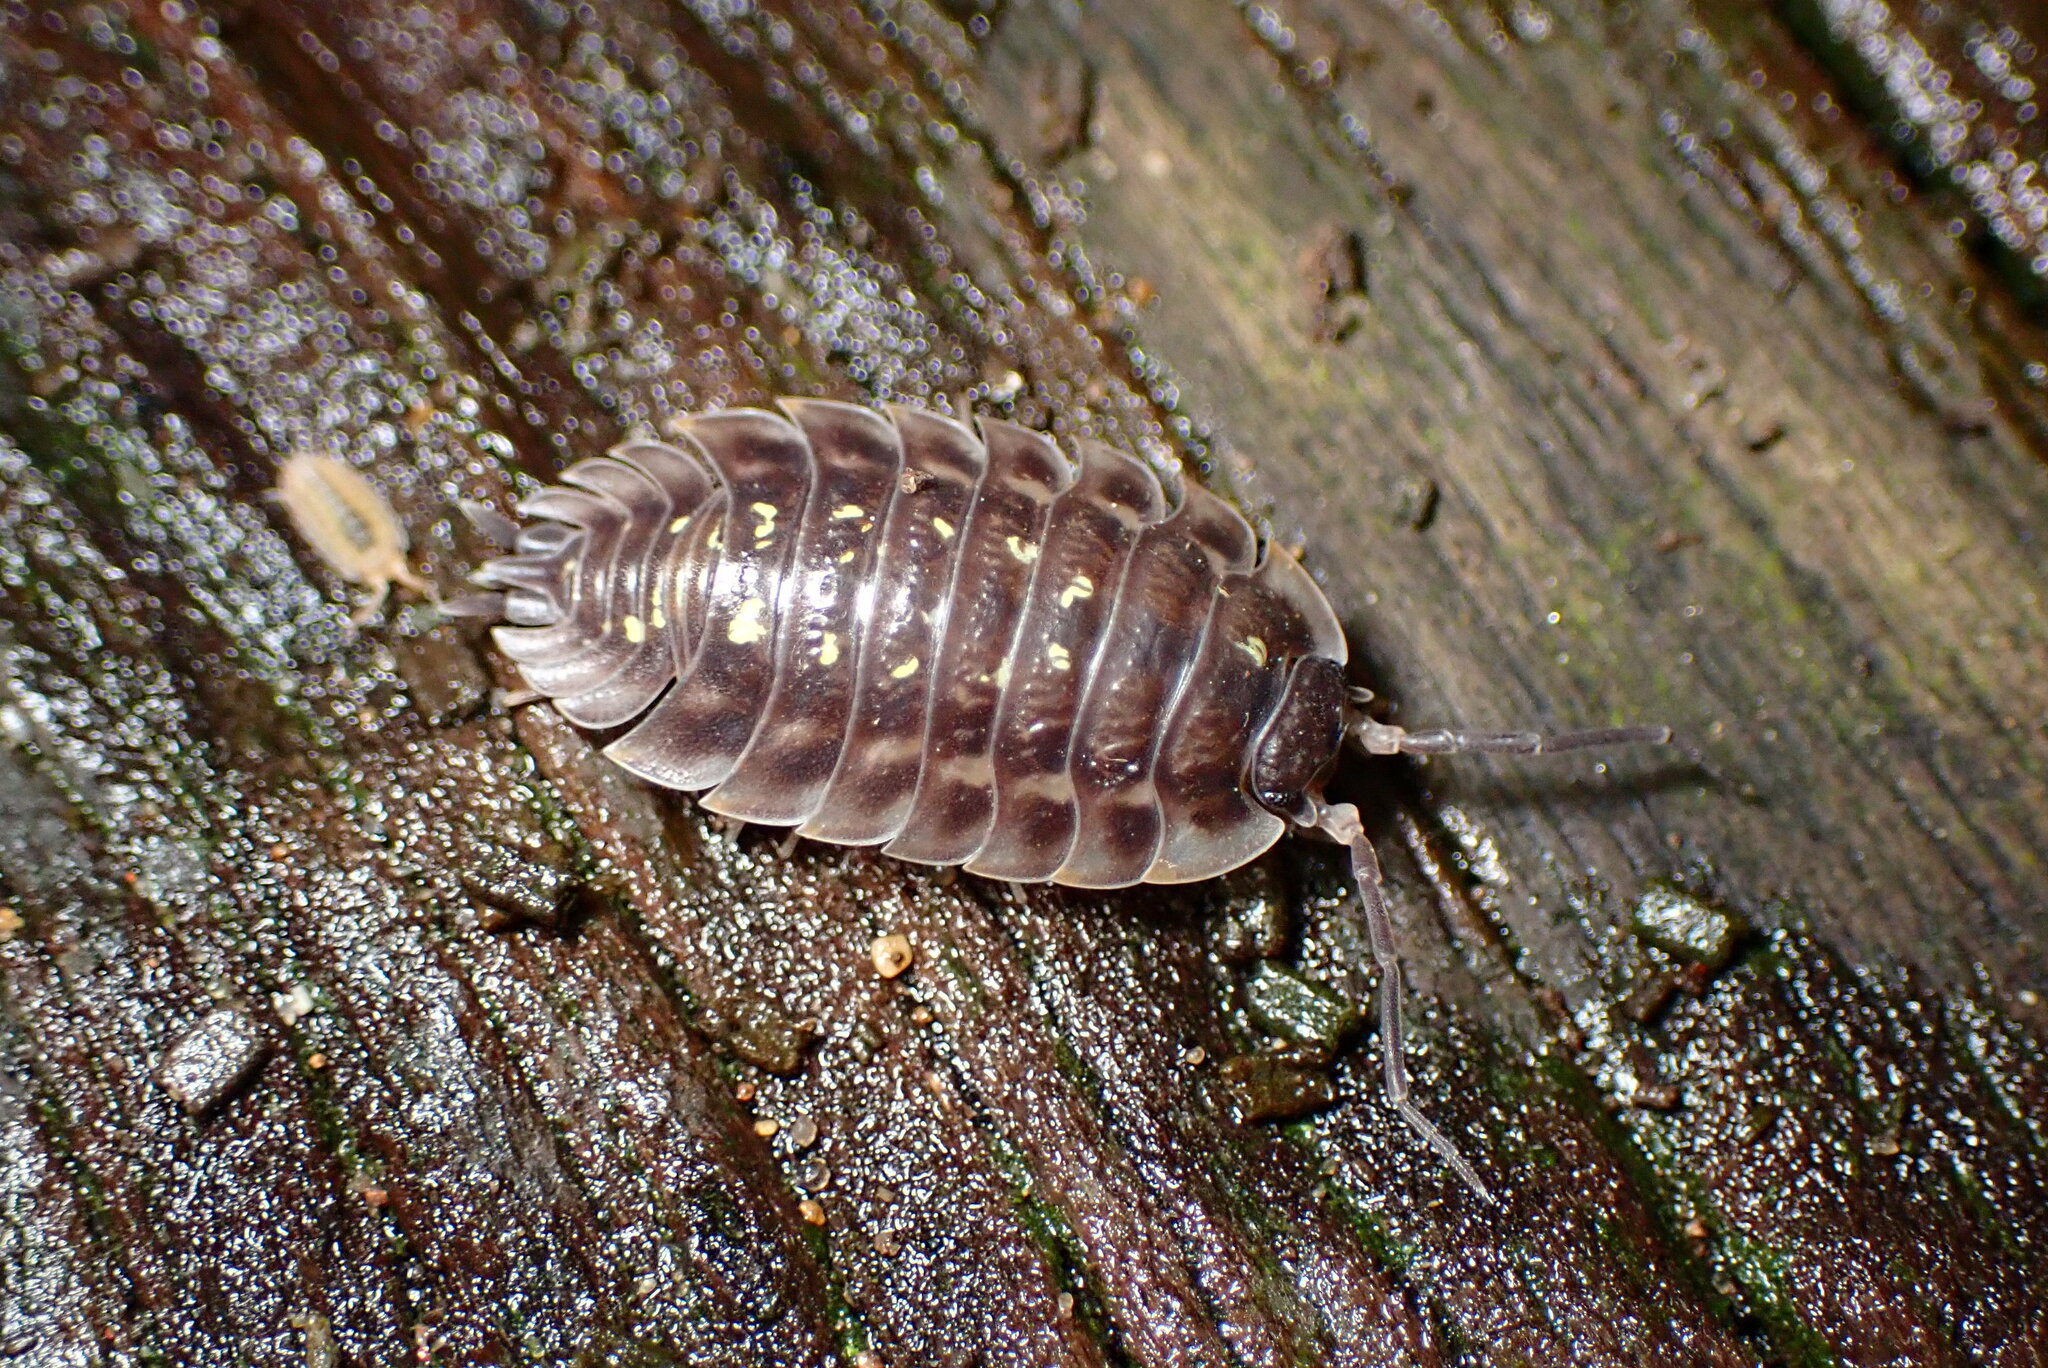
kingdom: Animalia
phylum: Arthropoda
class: Malacostraca
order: Isopoda
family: Oniscidae
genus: Oniscus
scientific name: Oniscus asellus
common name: Common shiny woodlouse
